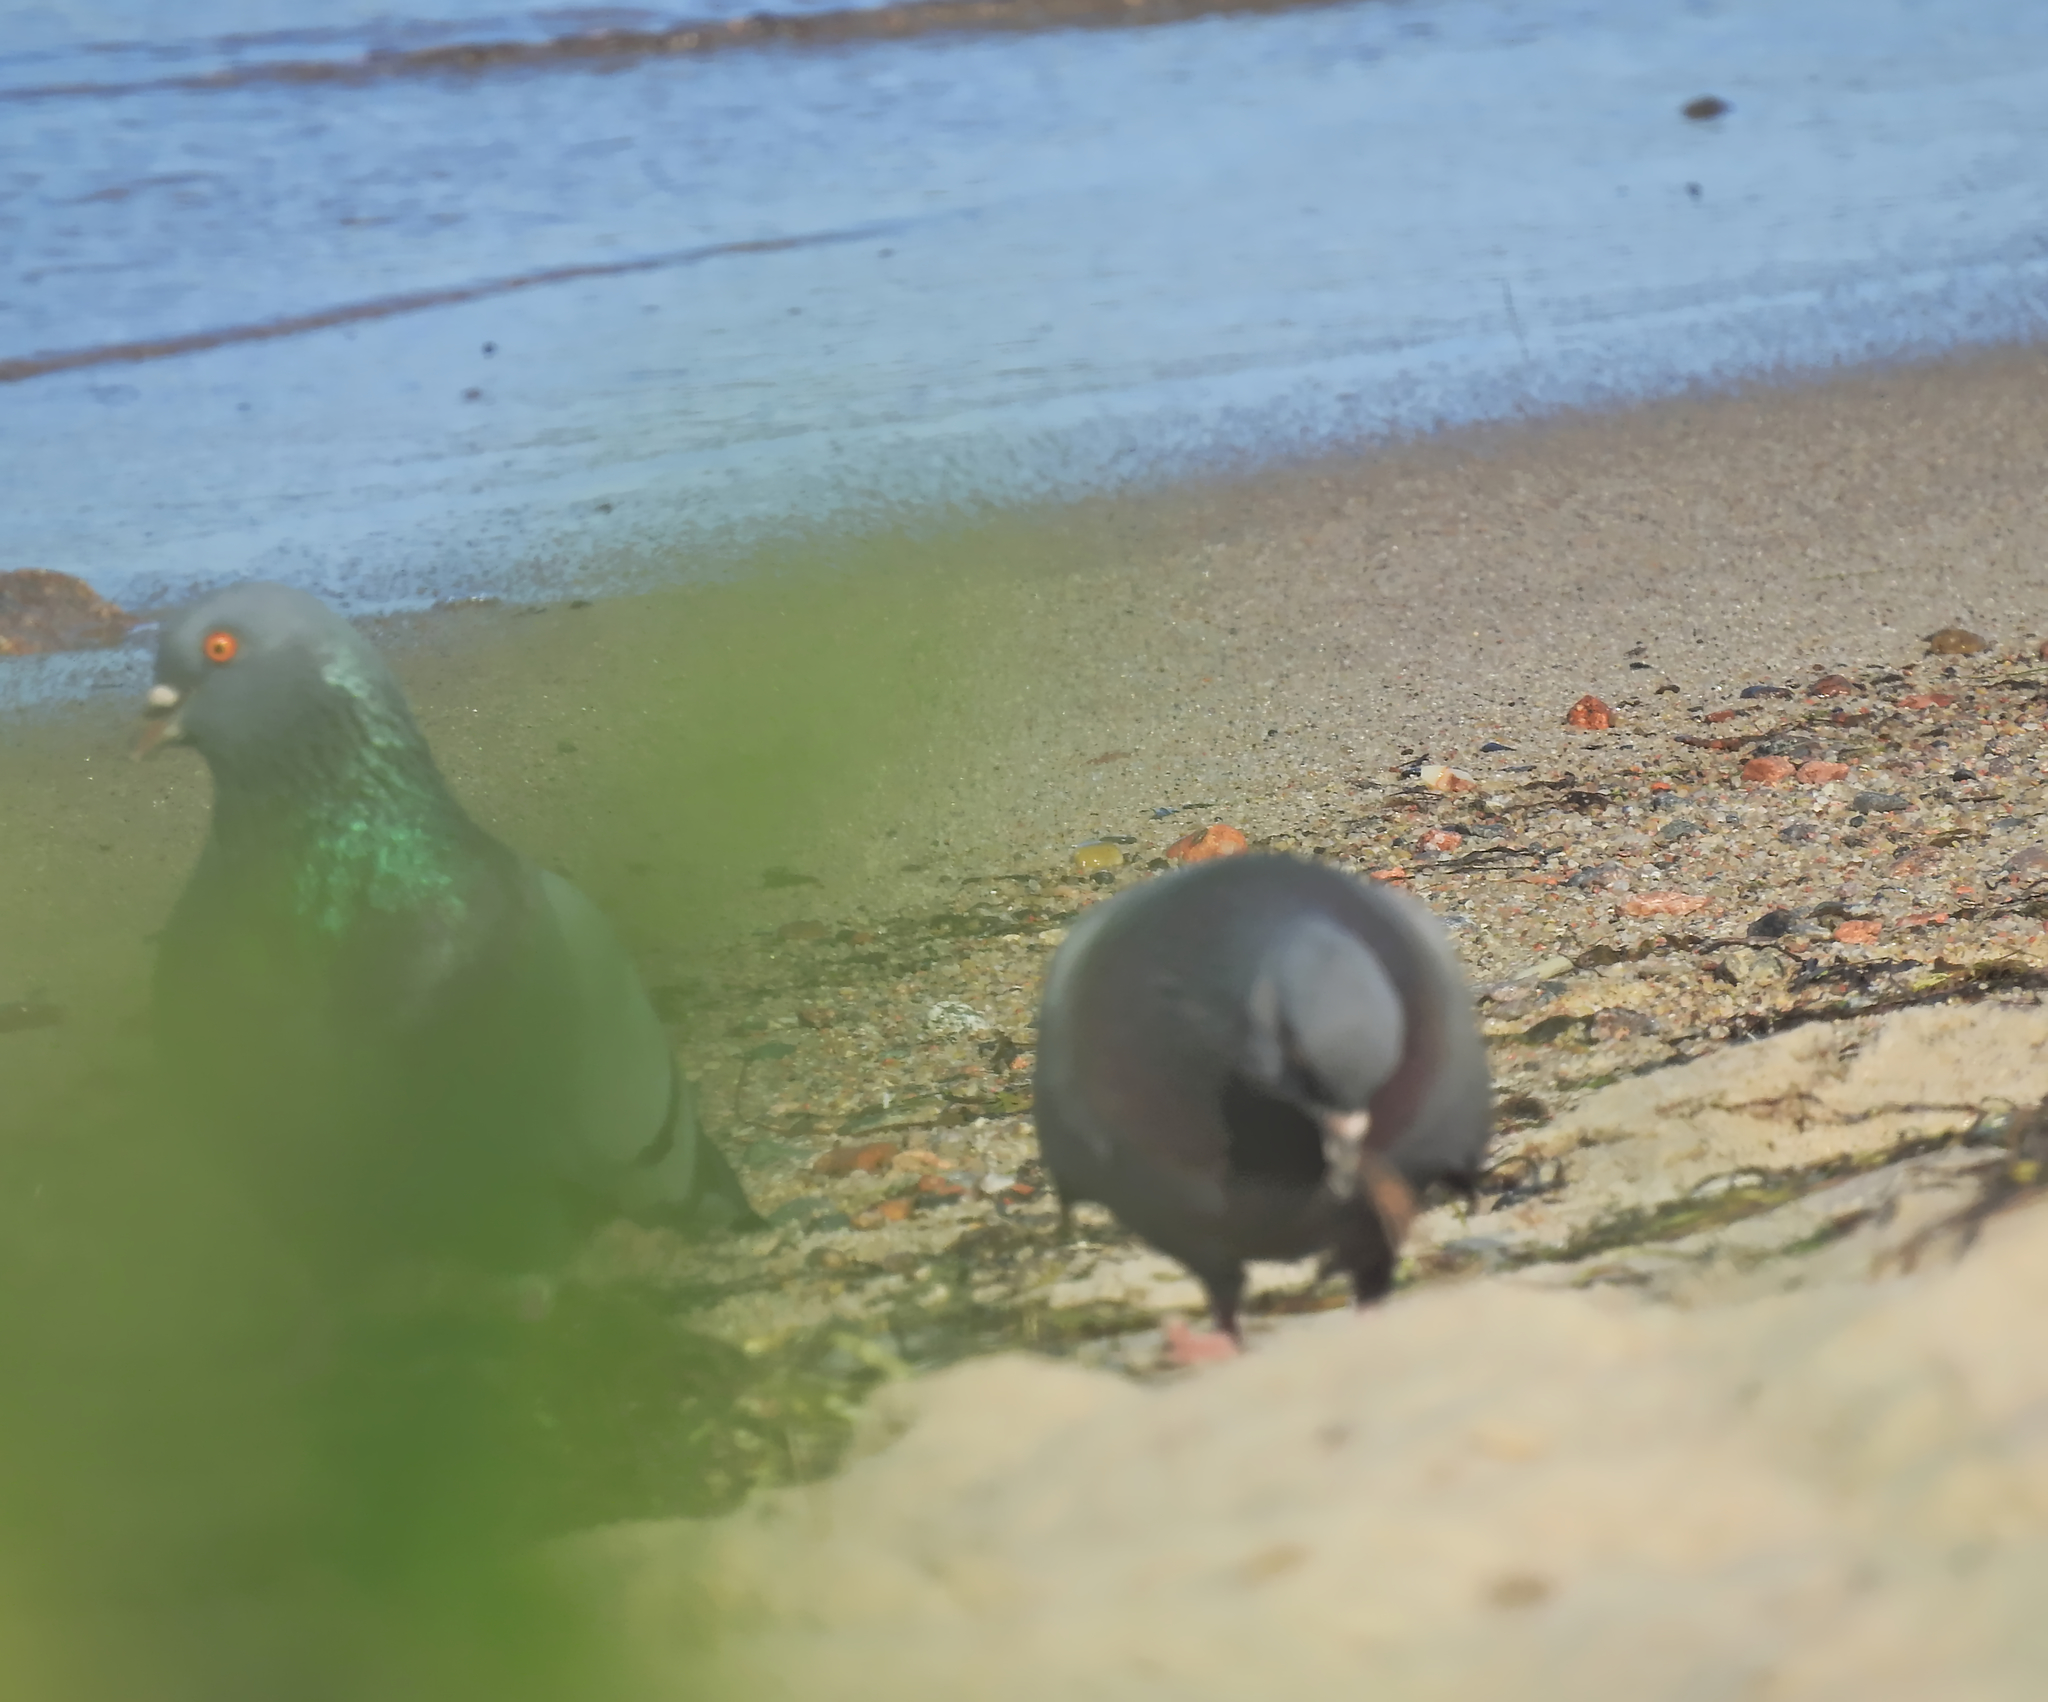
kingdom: Animalia
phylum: Chordata
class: Aves
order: Columbiformes
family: Columbidae
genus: Columba
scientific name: Columba livia
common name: Rock pigeon
